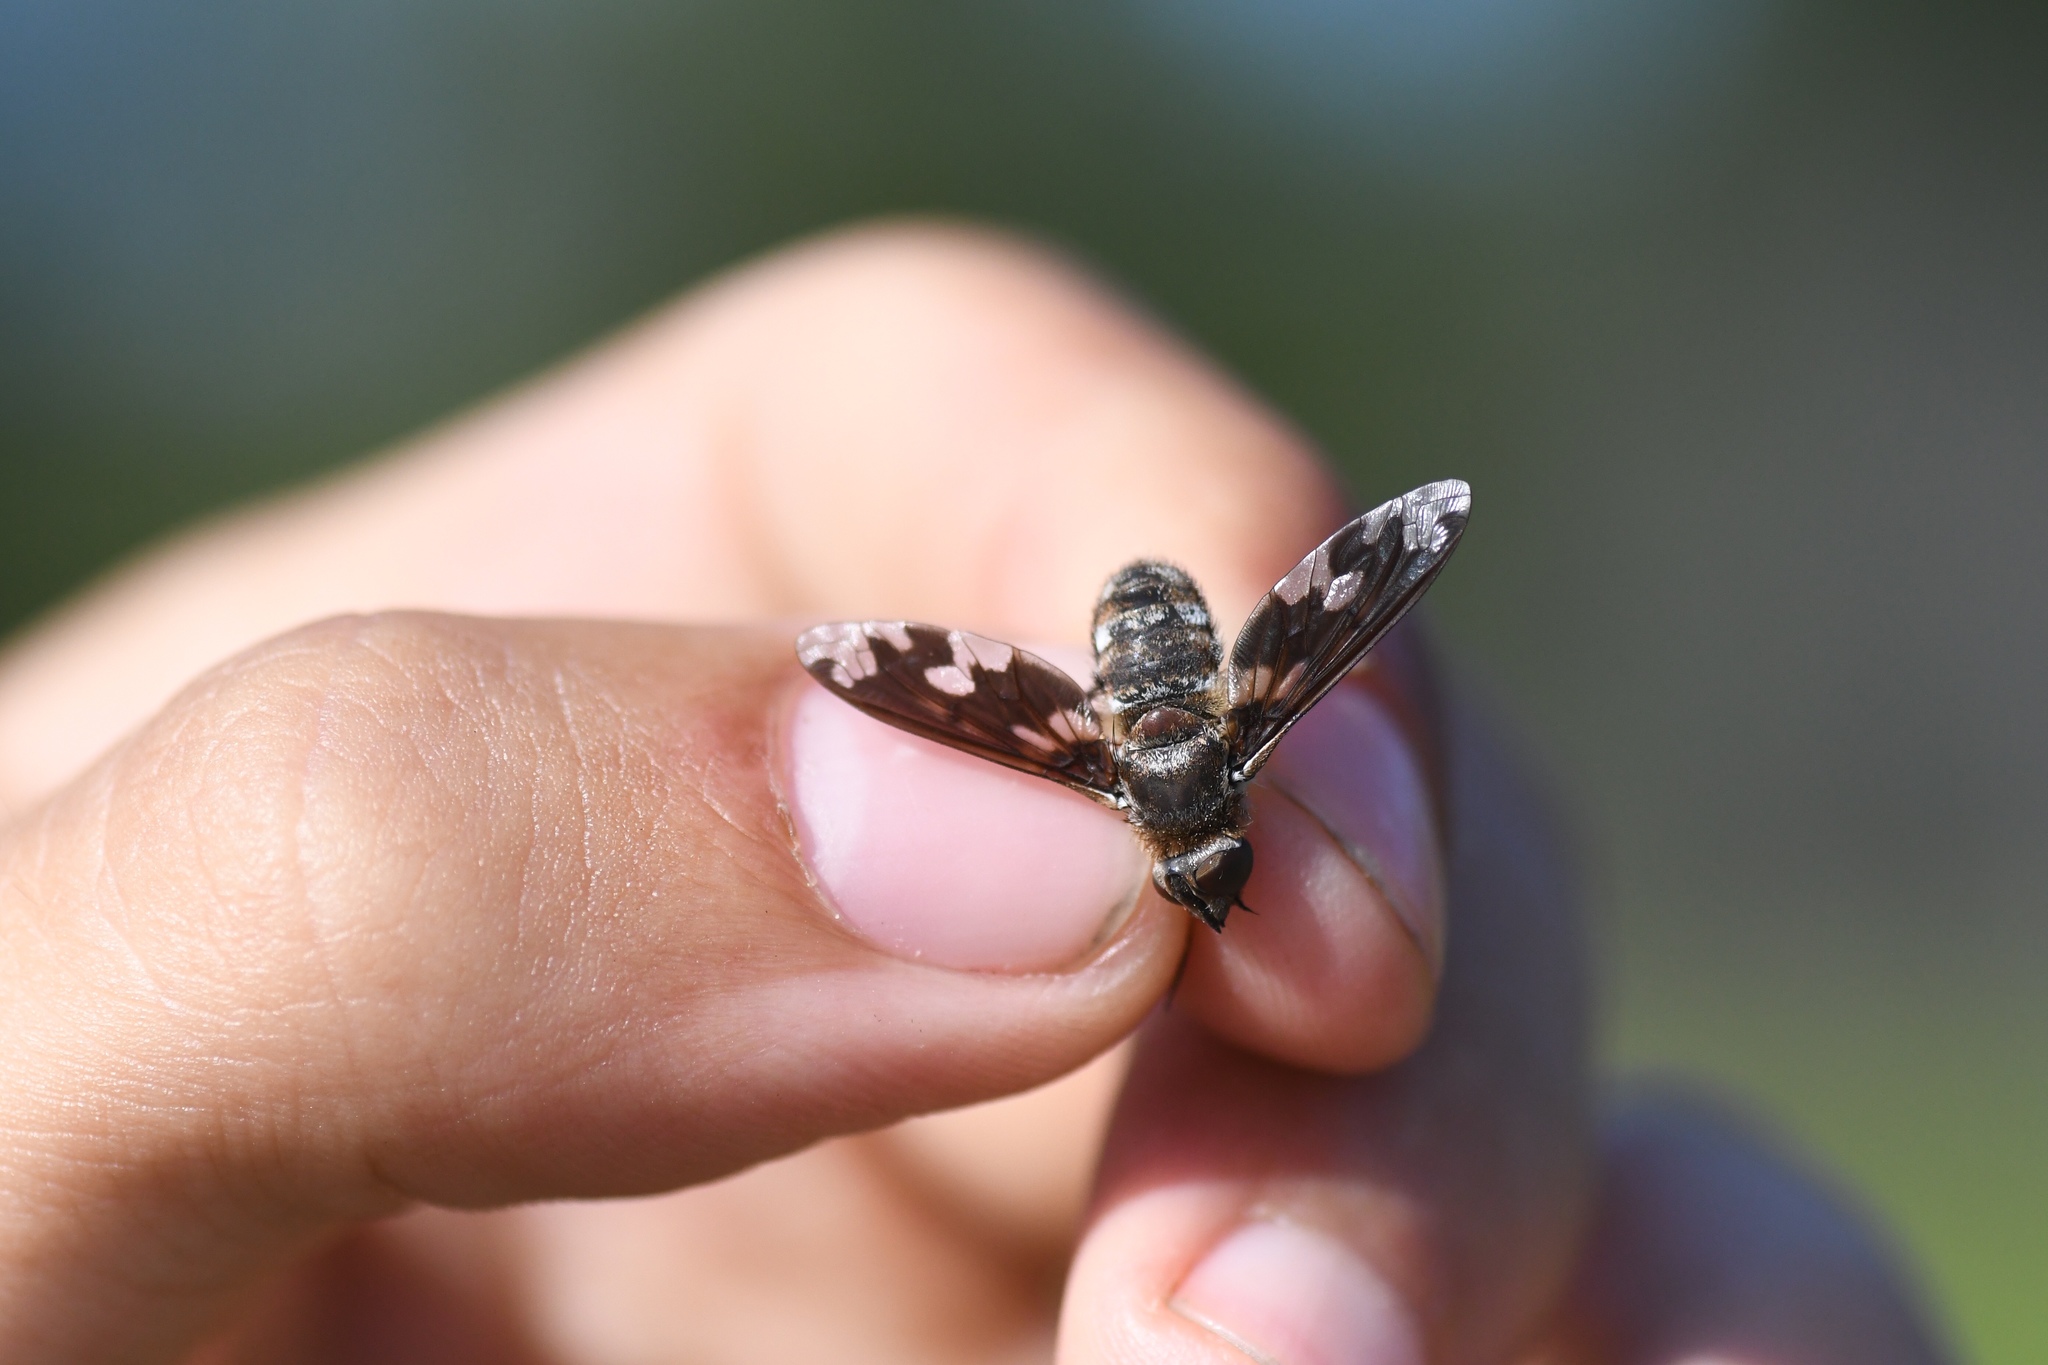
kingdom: Animalia
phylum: Arthropoda
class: Insecta
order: Diptera
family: Bombyliidae
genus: Exoprosopa
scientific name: Exoprosopa fascipennis
